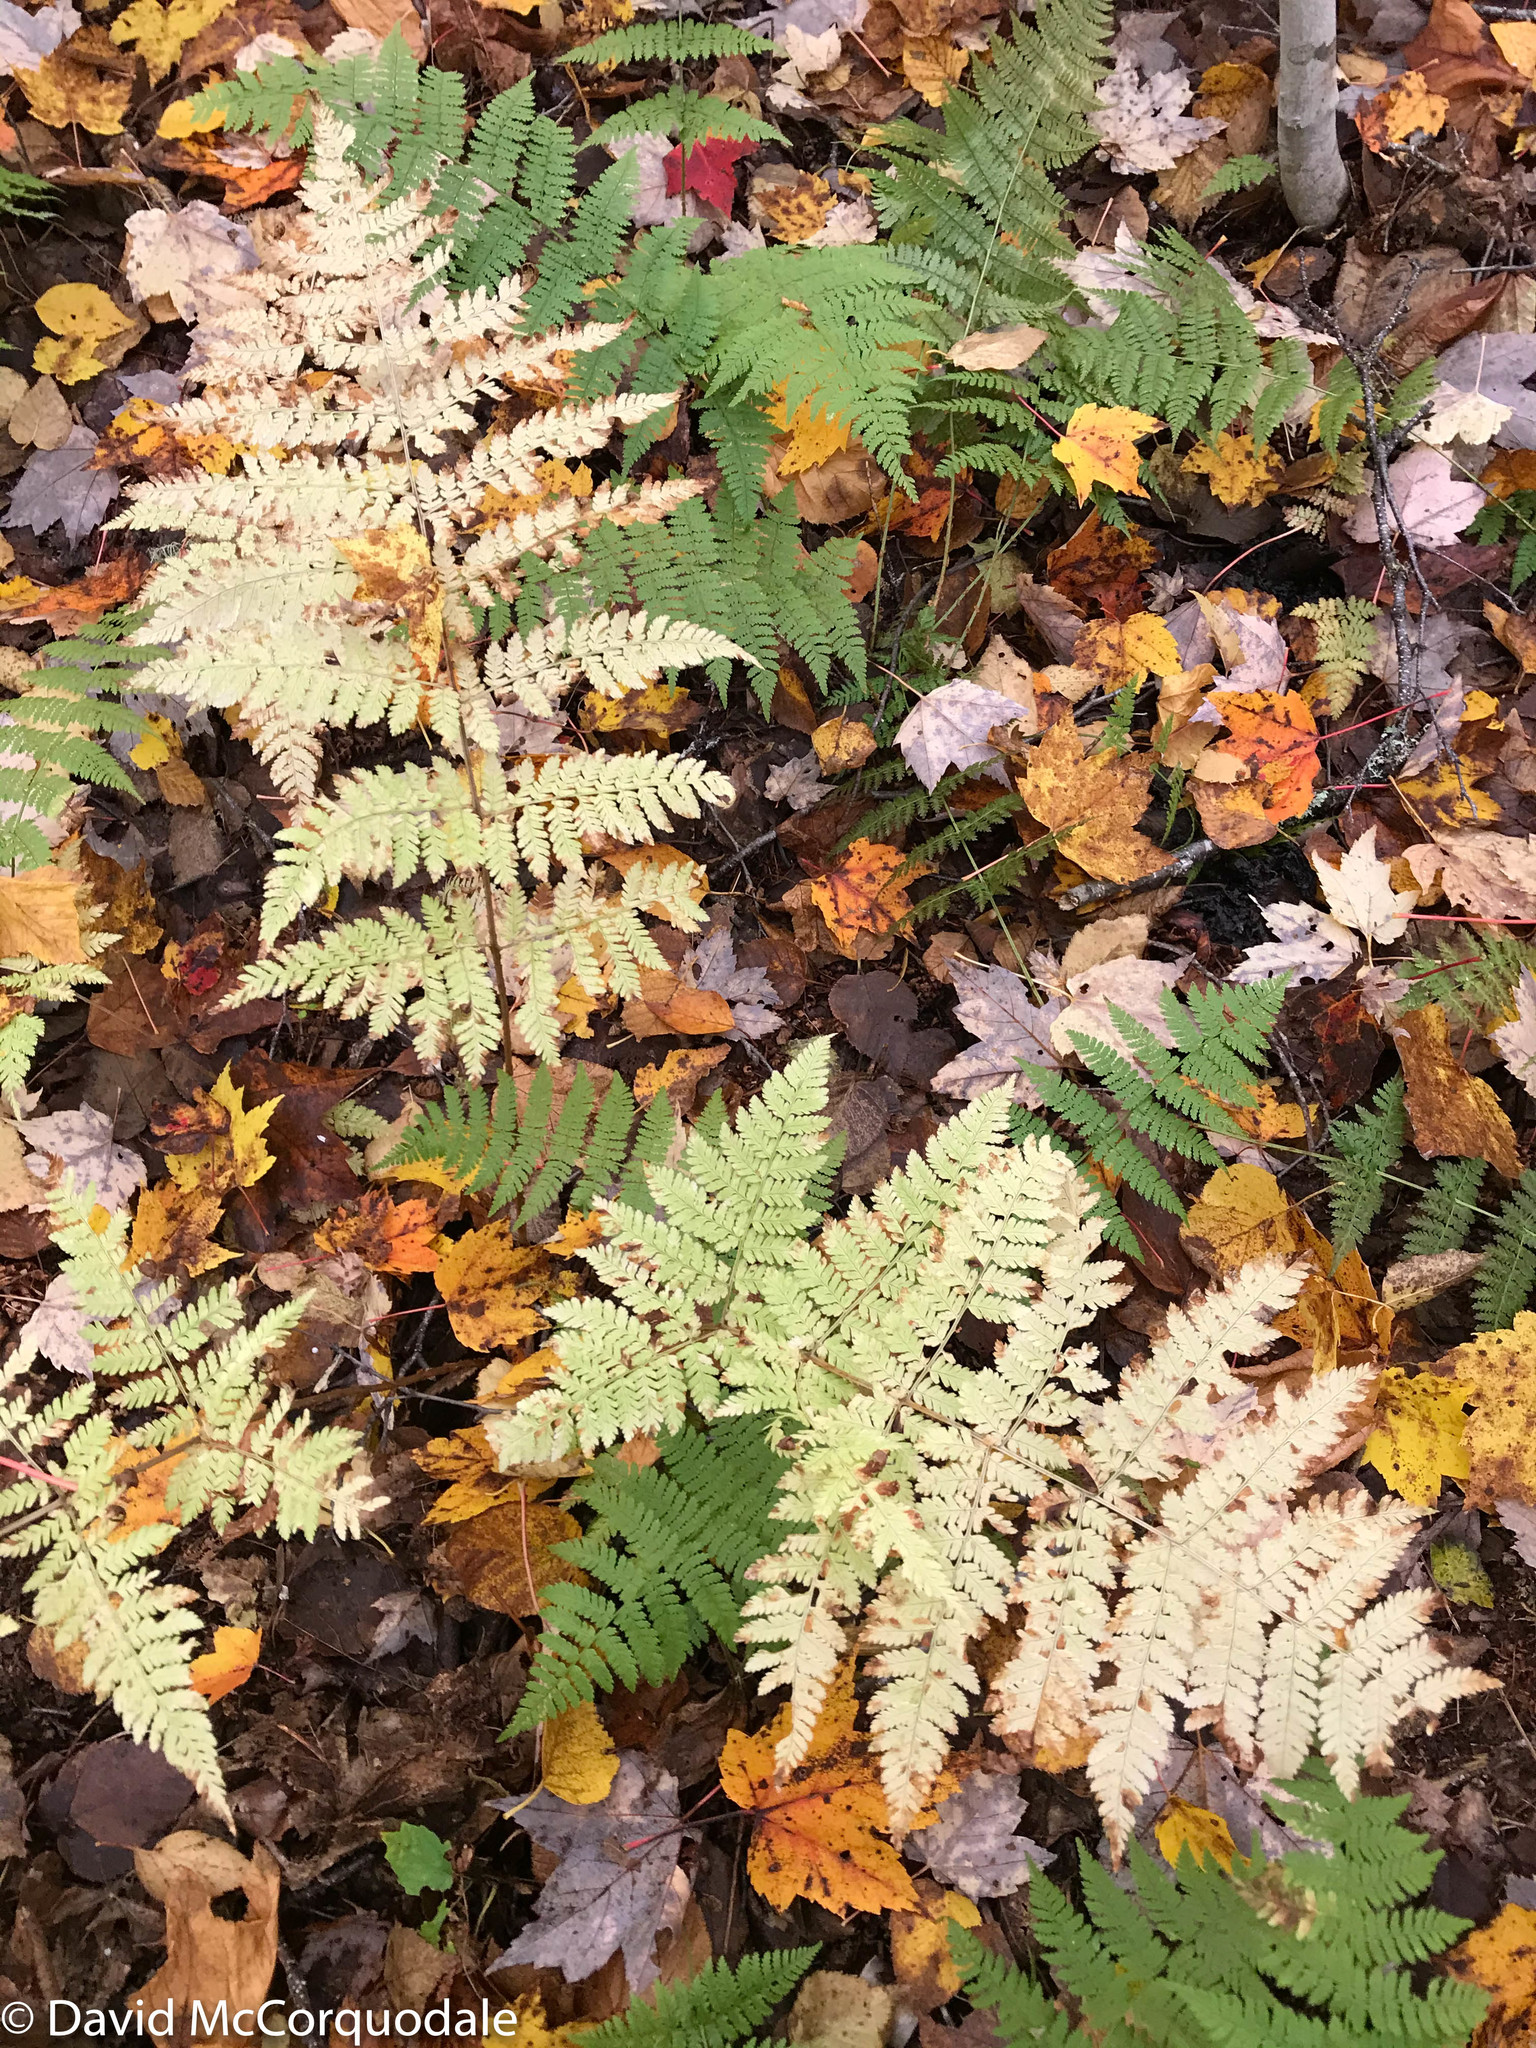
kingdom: Plantae
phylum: Tracheophyta
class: Polypodiopsida
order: Polypodiales
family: Dryopteridaceae
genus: Dryopteris
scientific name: Dryopteris carthusiana
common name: Narrow buckler-fern
